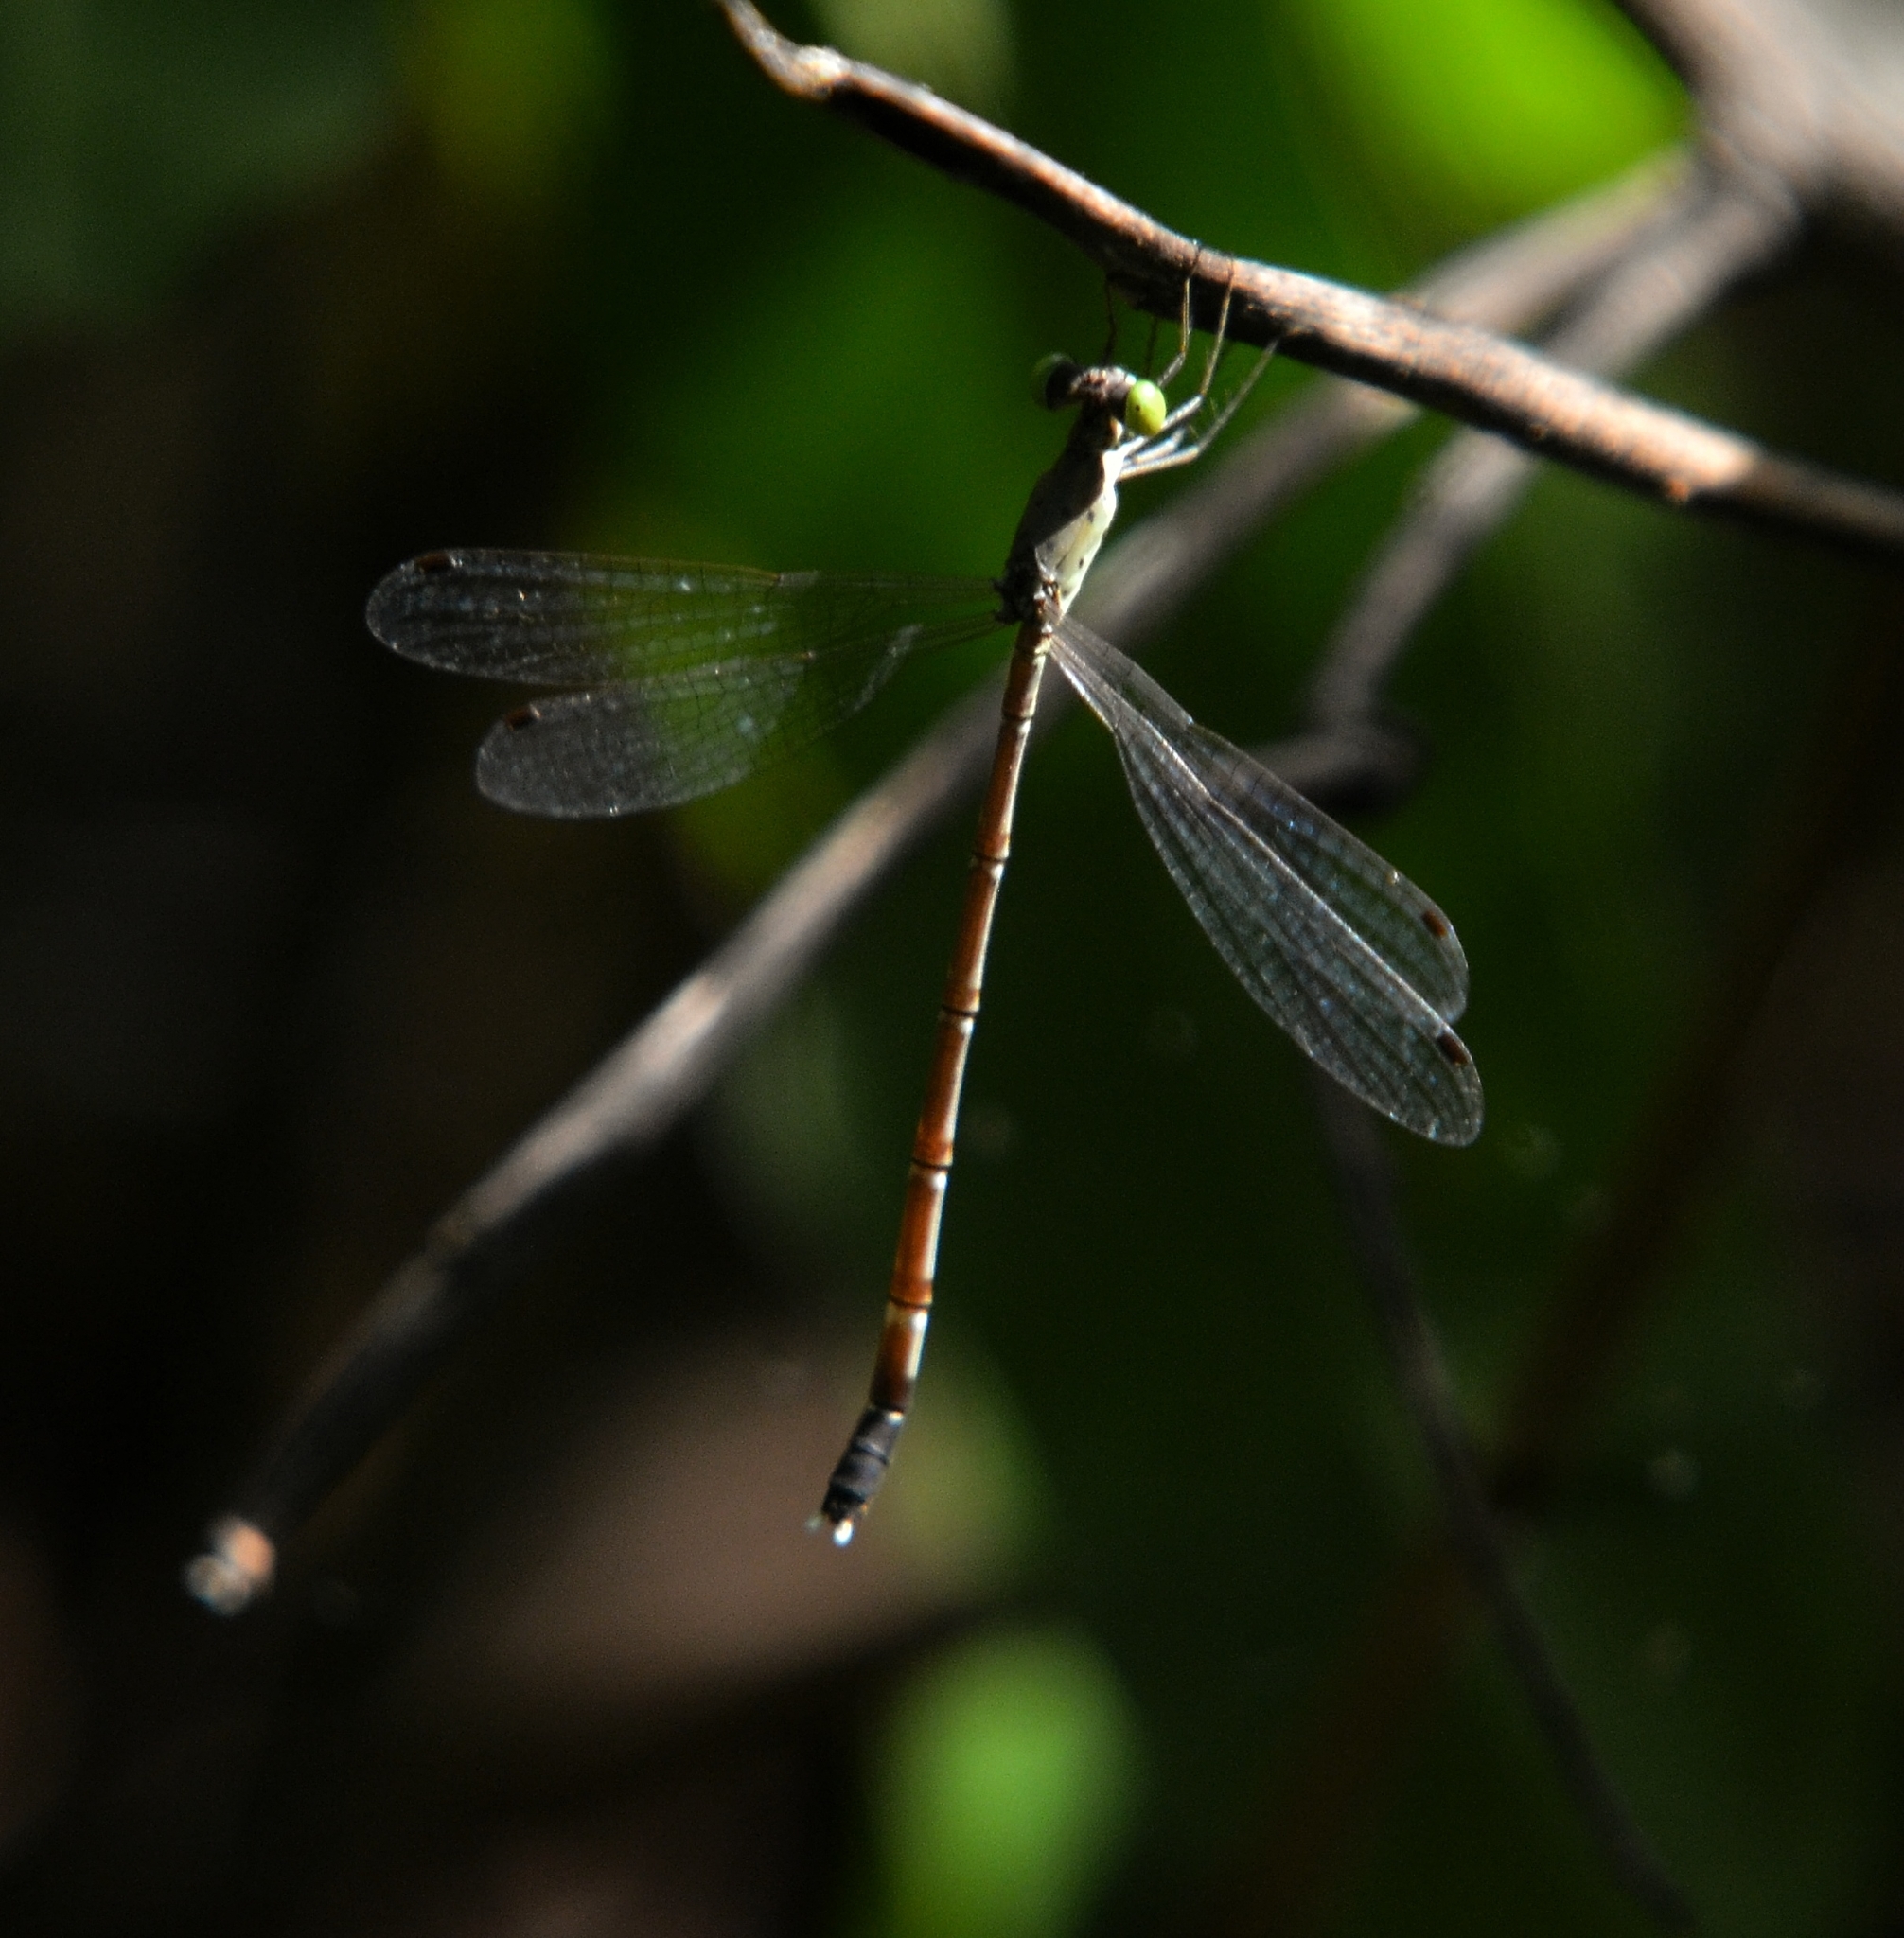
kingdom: Animalia
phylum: Arthropoda
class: Insecta
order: Odonata
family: Lestidae
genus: Platylestes
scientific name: Platylestes kirani
